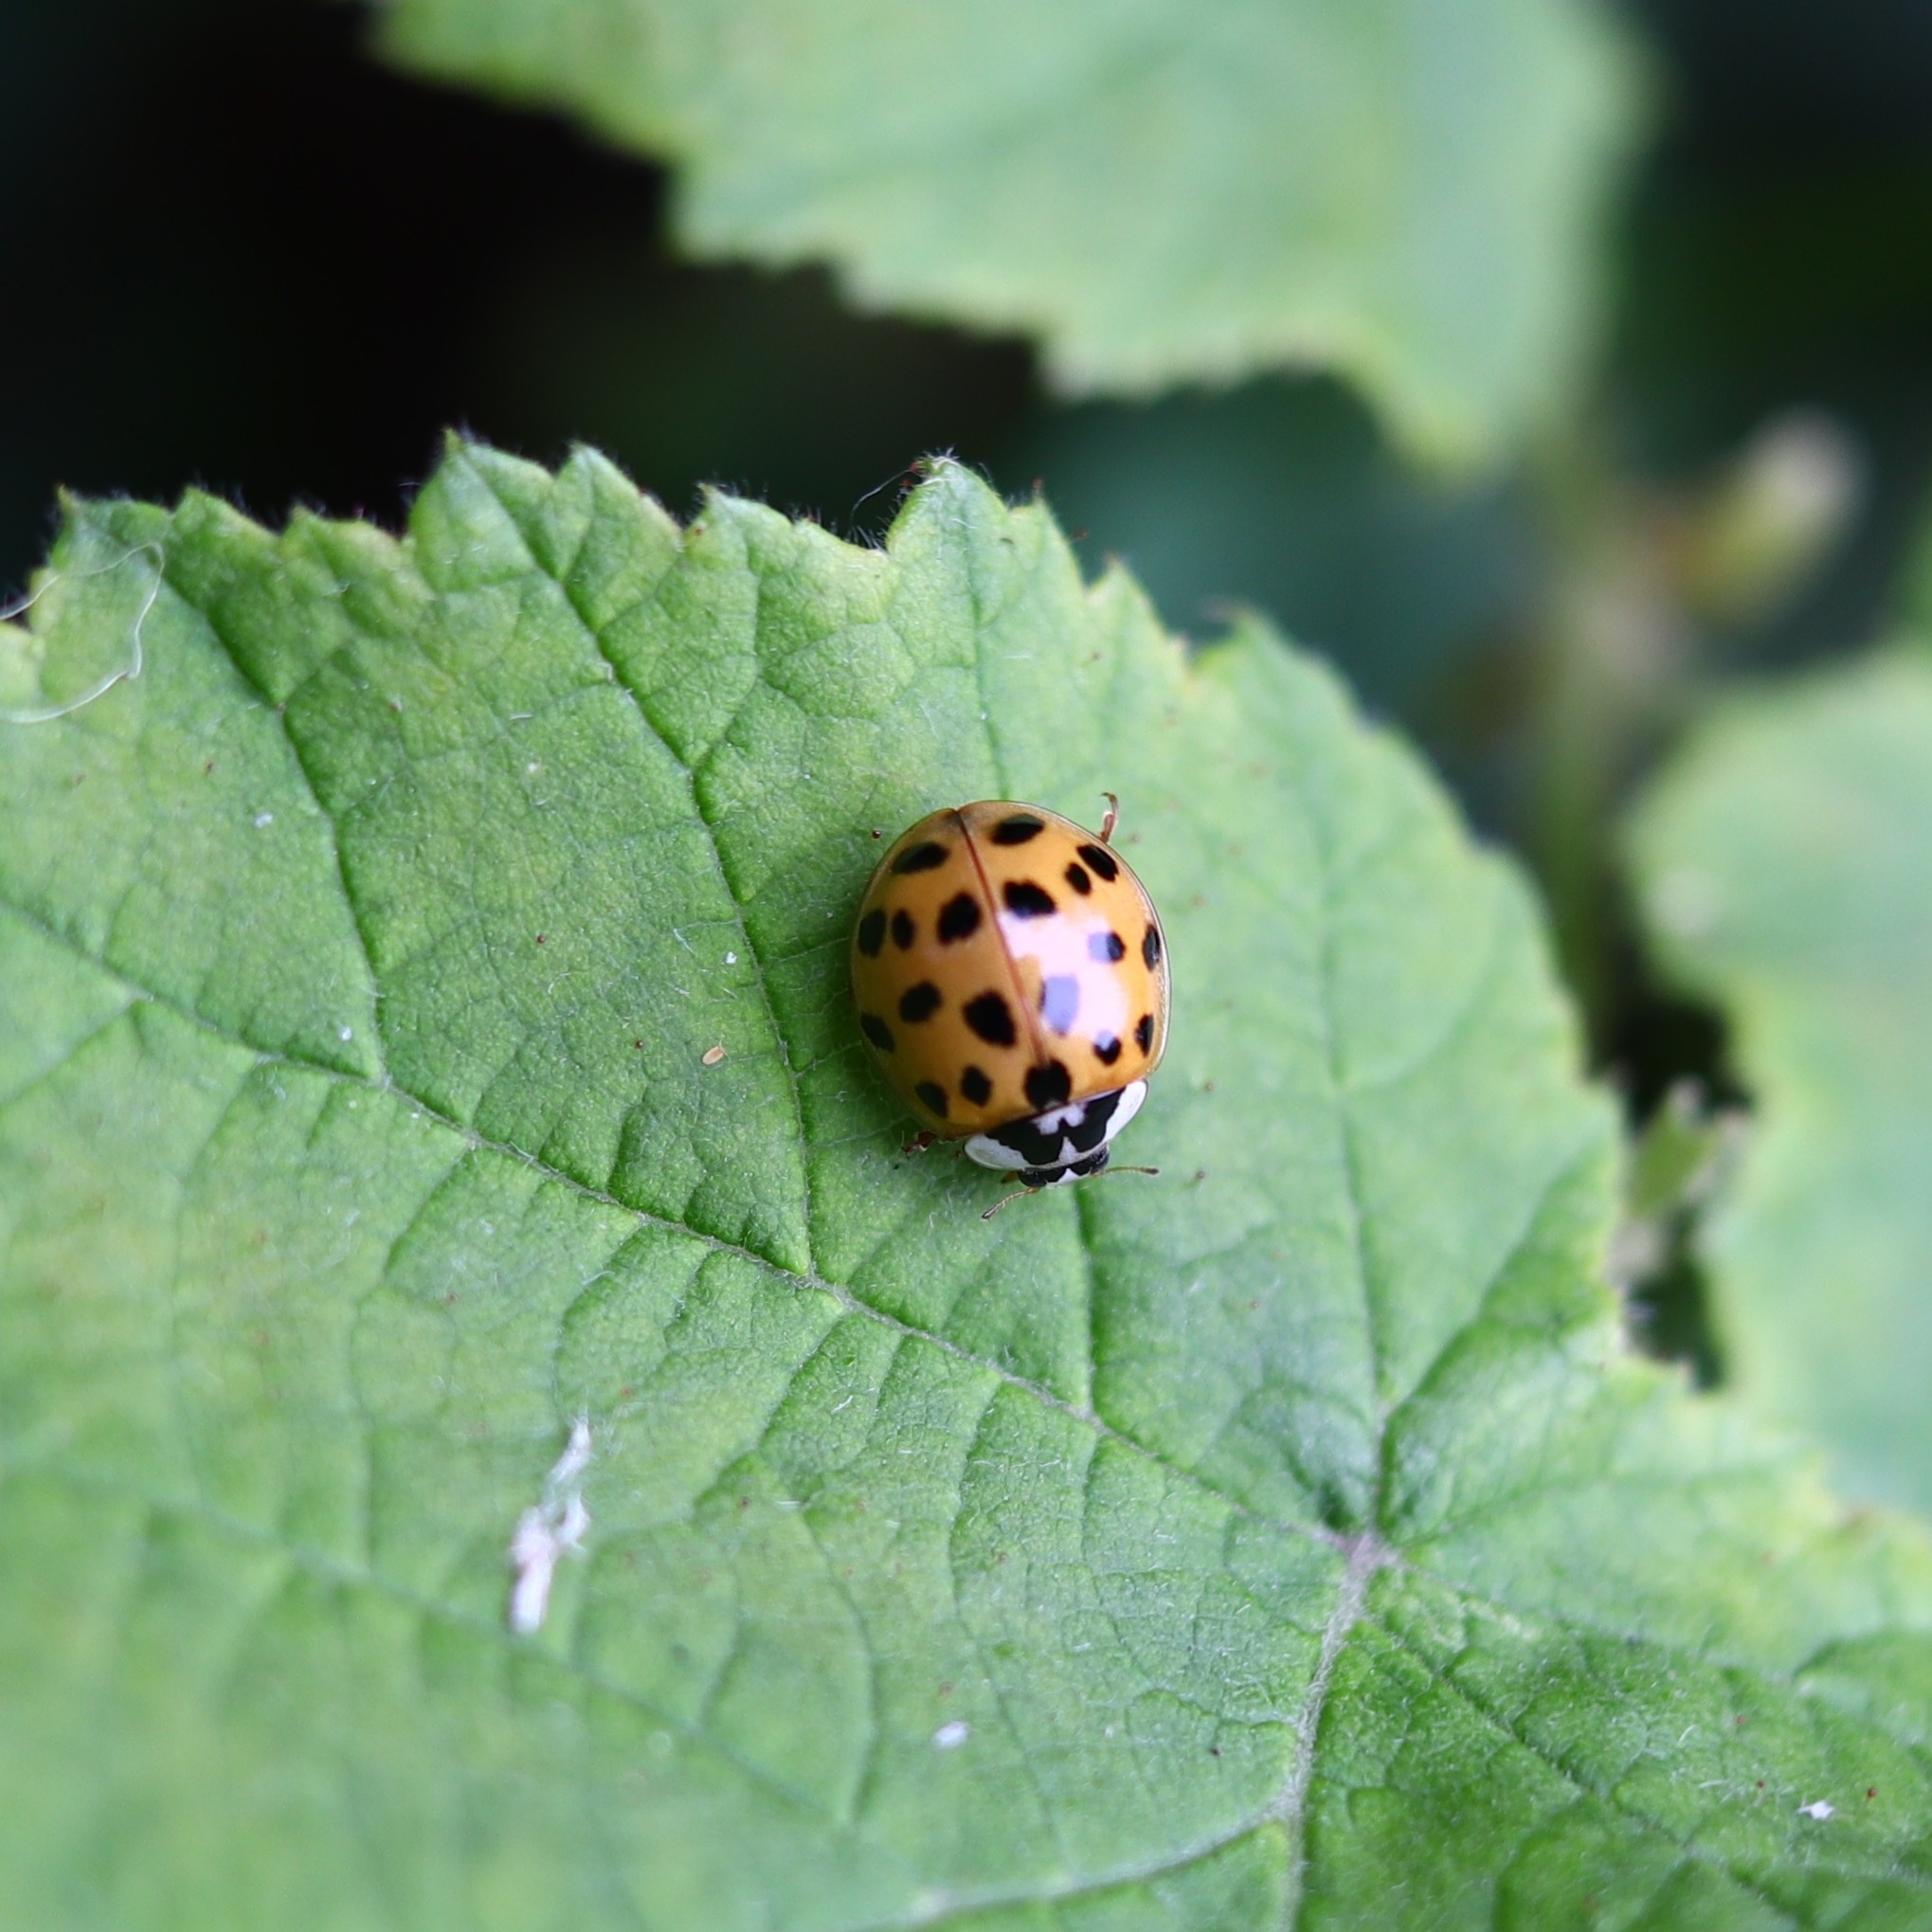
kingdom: Animalia
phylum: Arthropoda
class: Insecta
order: Coleoptera
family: Coccinellidae
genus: Harmonia
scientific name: Harmonia axyridis
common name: Harlequin ladybird
